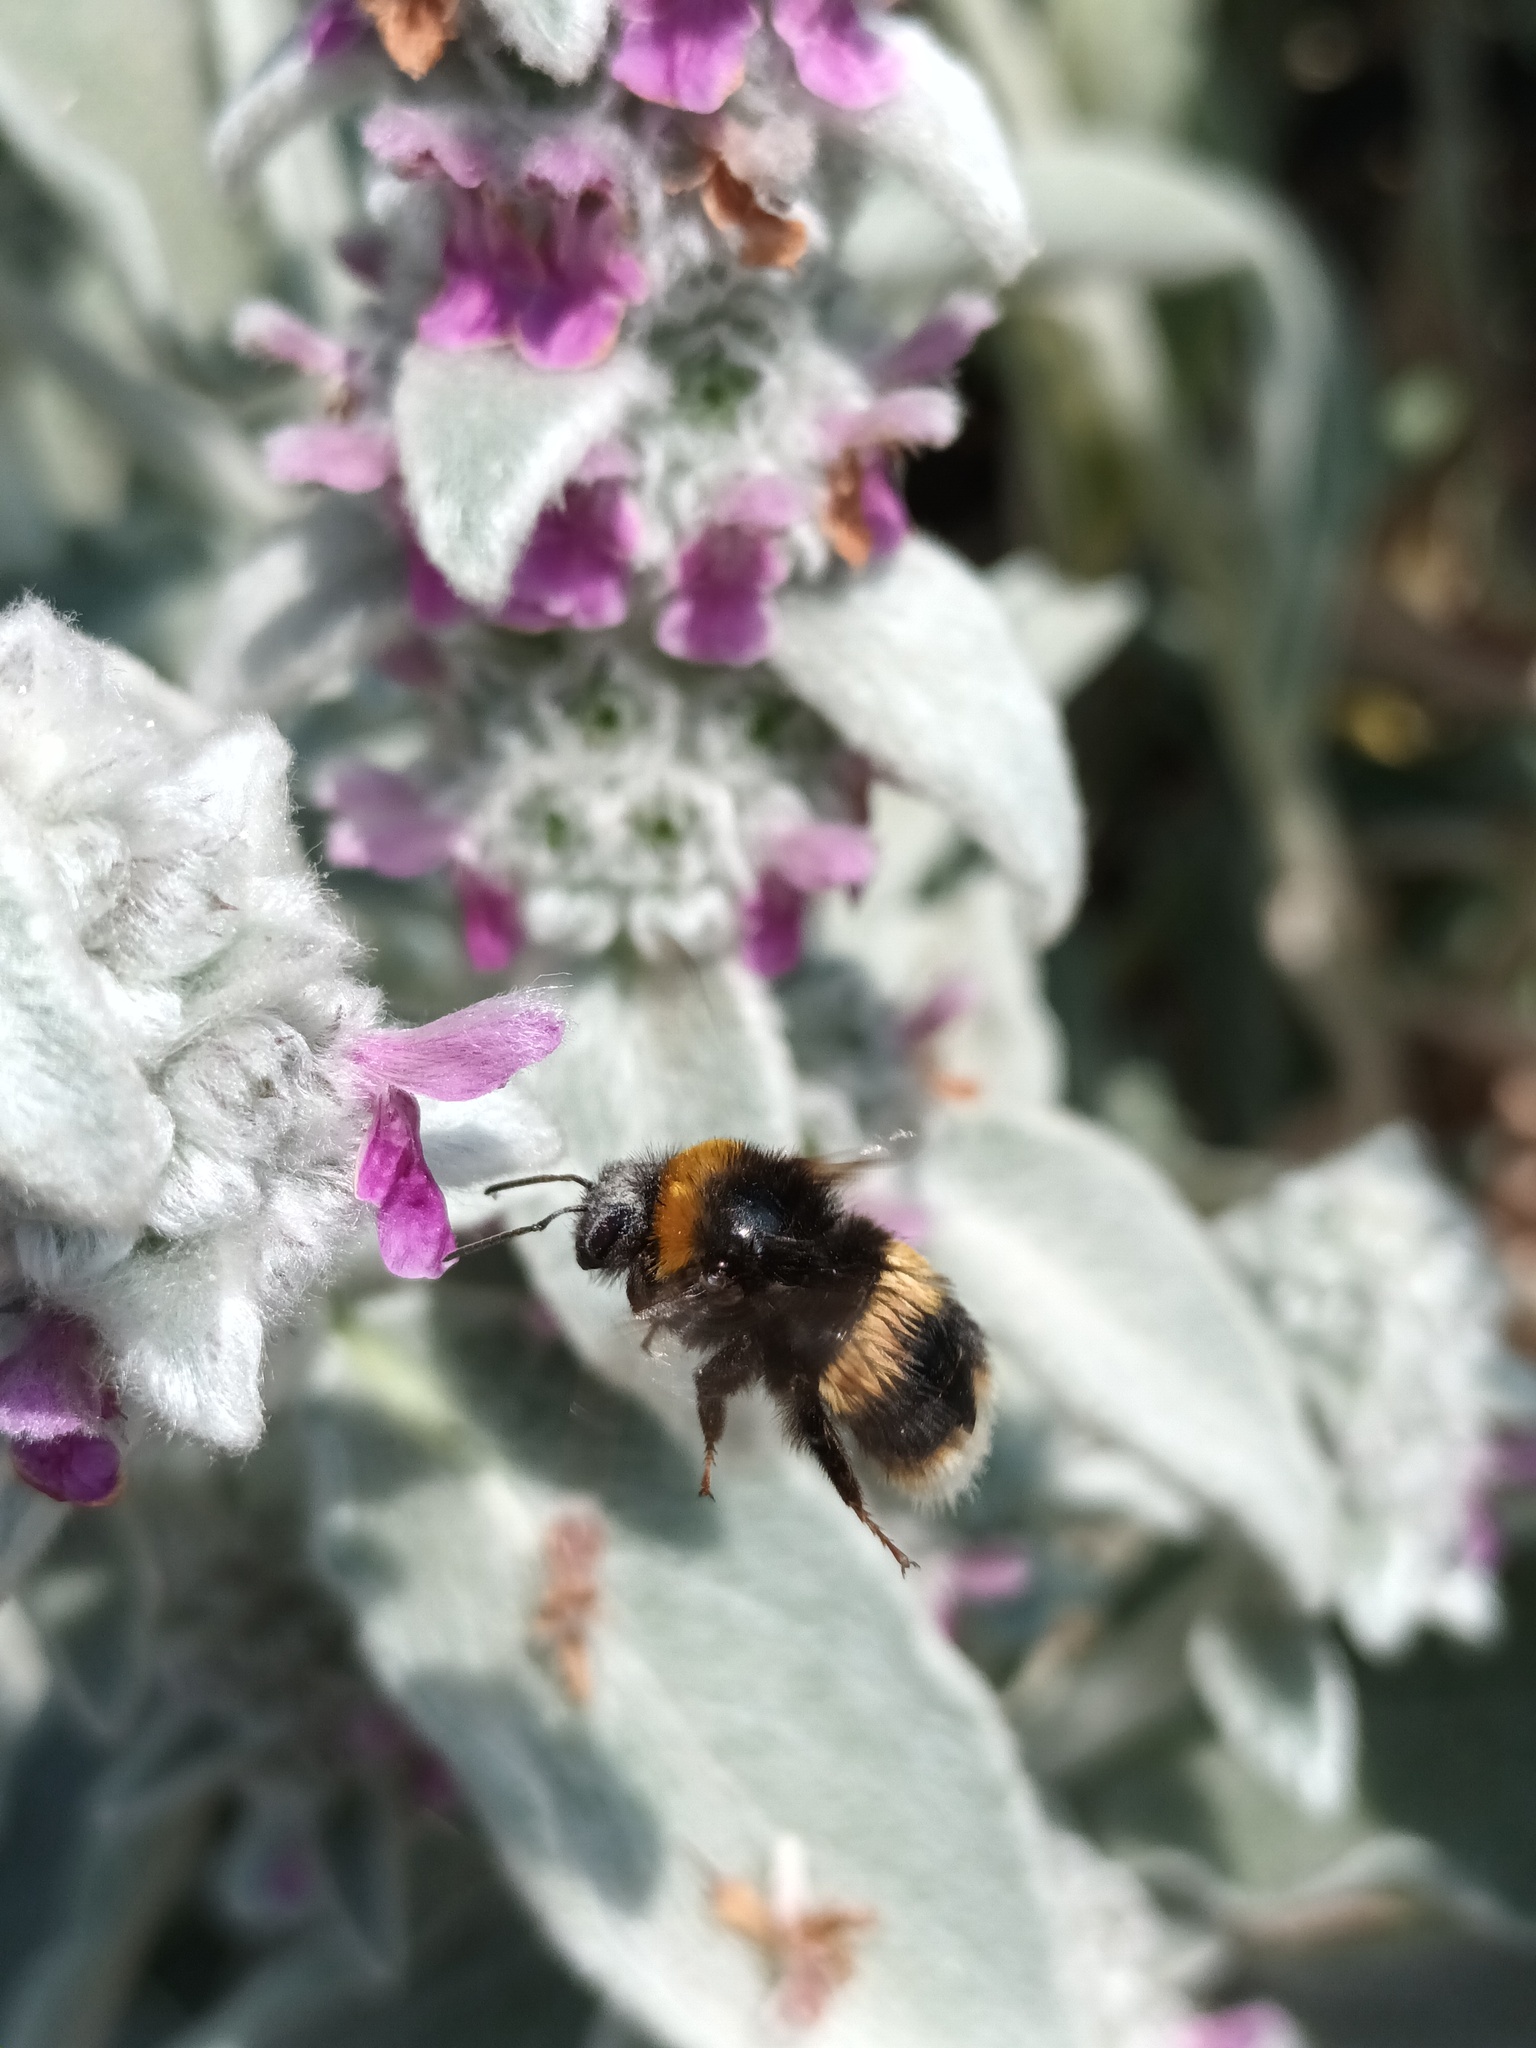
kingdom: Animalia
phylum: Arthropoda
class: Insecta
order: Hymenoptera
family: Apidae
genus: Bombus
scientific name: Bombus terrestris
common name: Buff-tailed bumblebee
